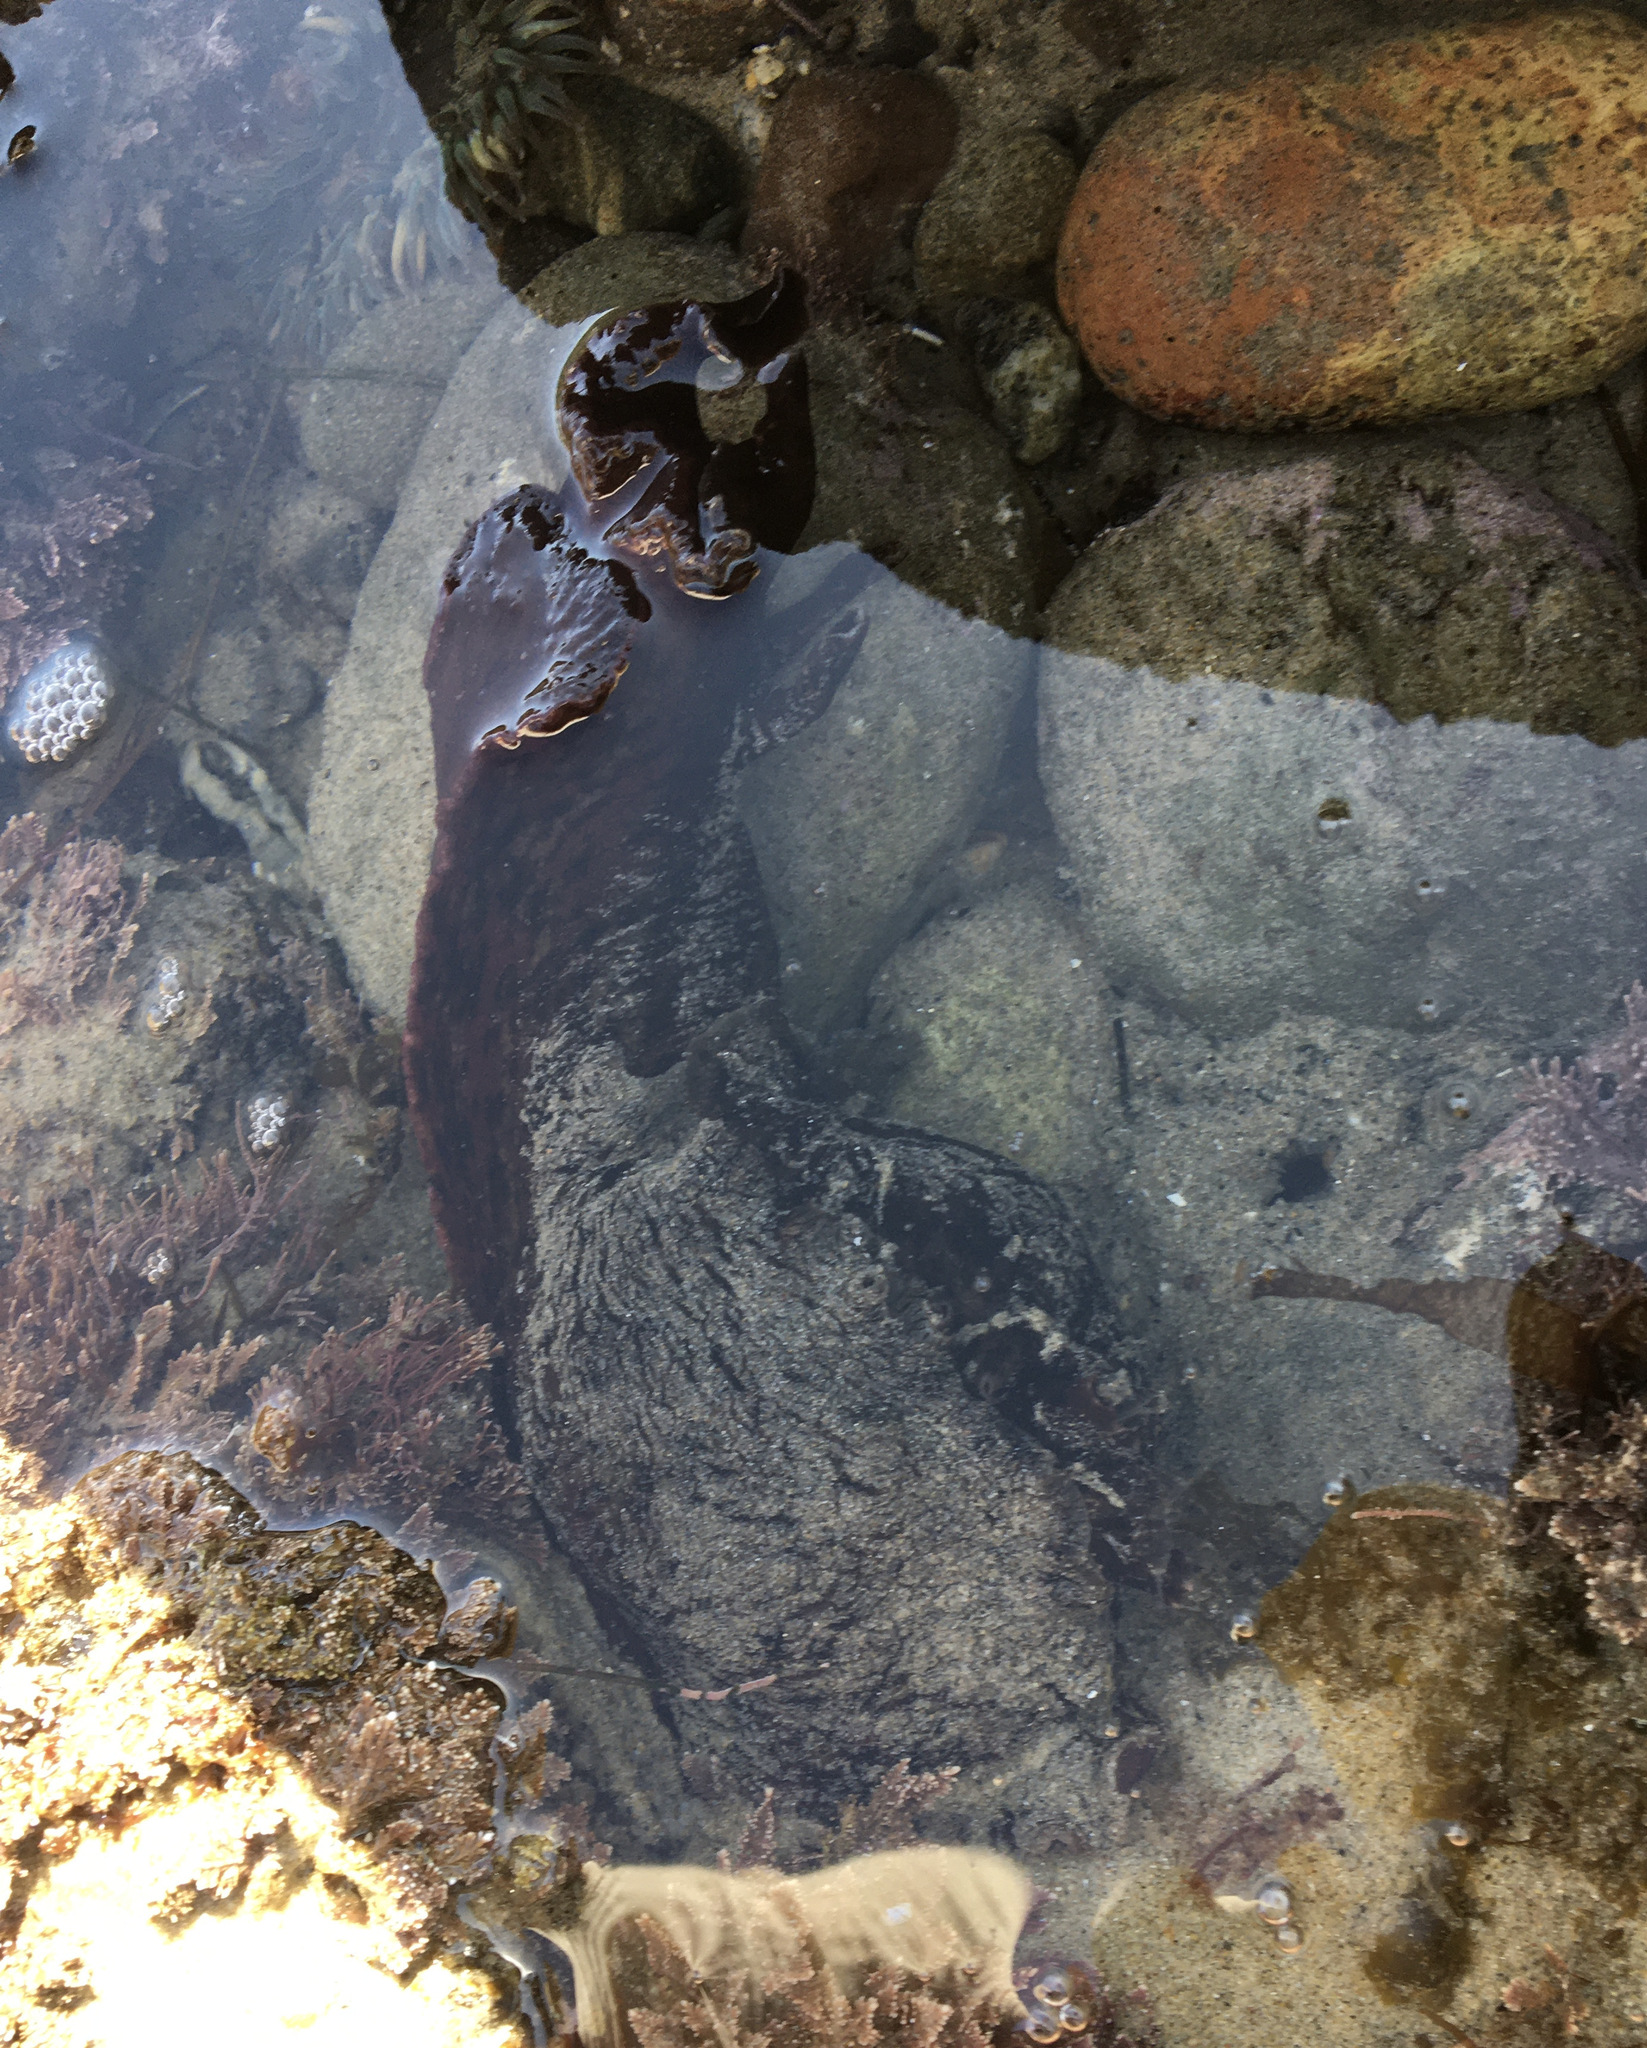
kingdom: Animalia
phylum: Mollusca
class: Gastropoda
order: Aplysiida
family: Aplysiidae
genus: Aplysia
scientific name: Aplysia californica
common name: California seahare
